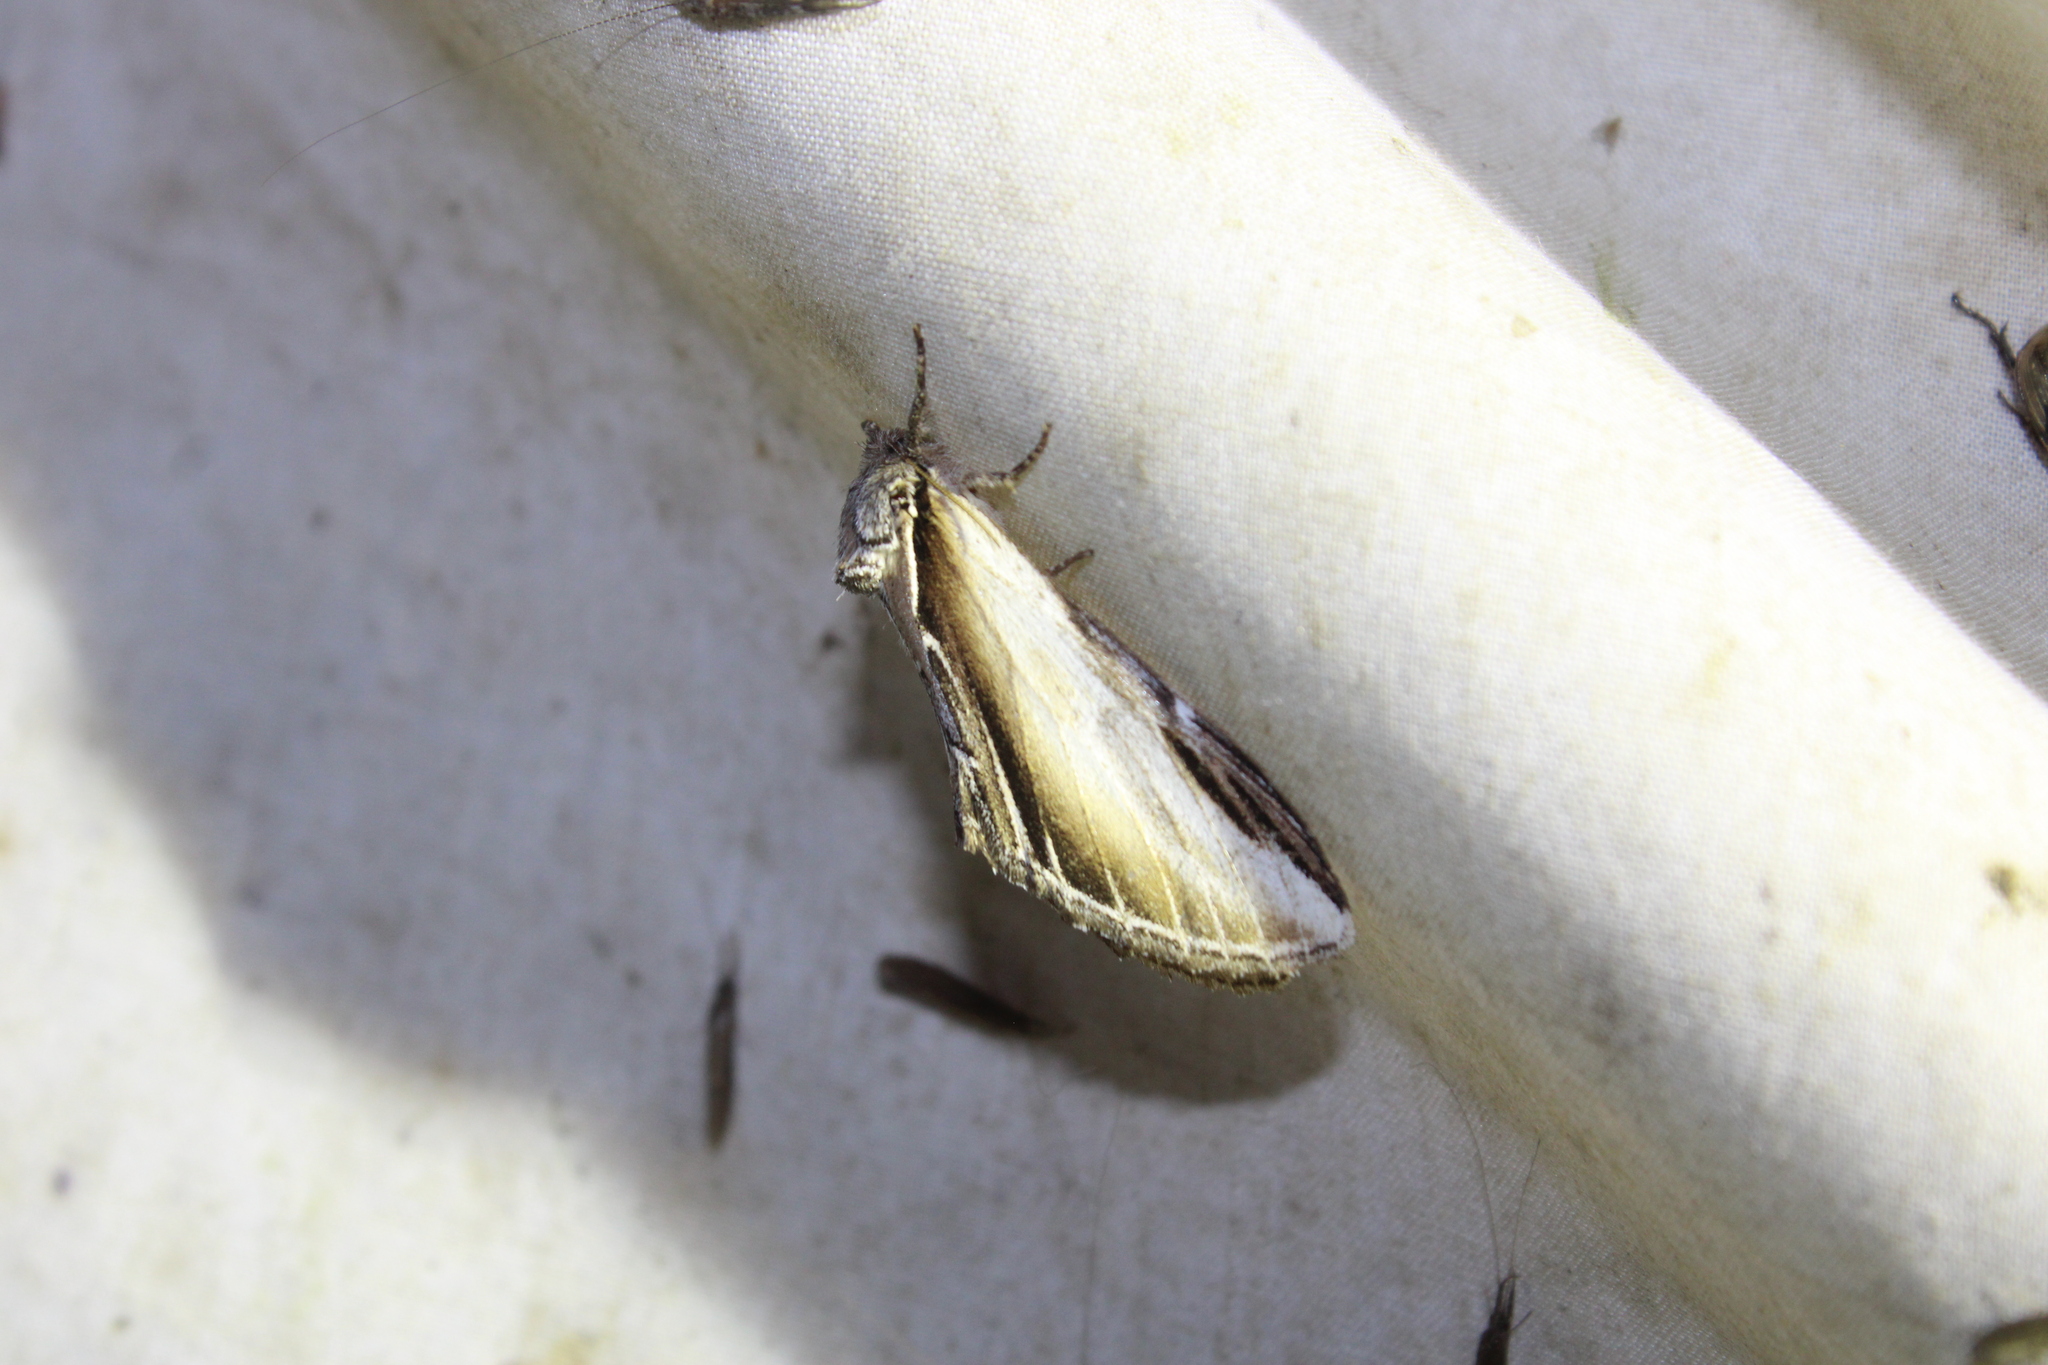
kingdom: Animalia
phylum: Arthropoda
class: Insecta
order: Lepidoptera
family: Notodontidae
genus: Pheosia
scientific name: Pheosia rimosa
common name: Black-rimmed prominent
